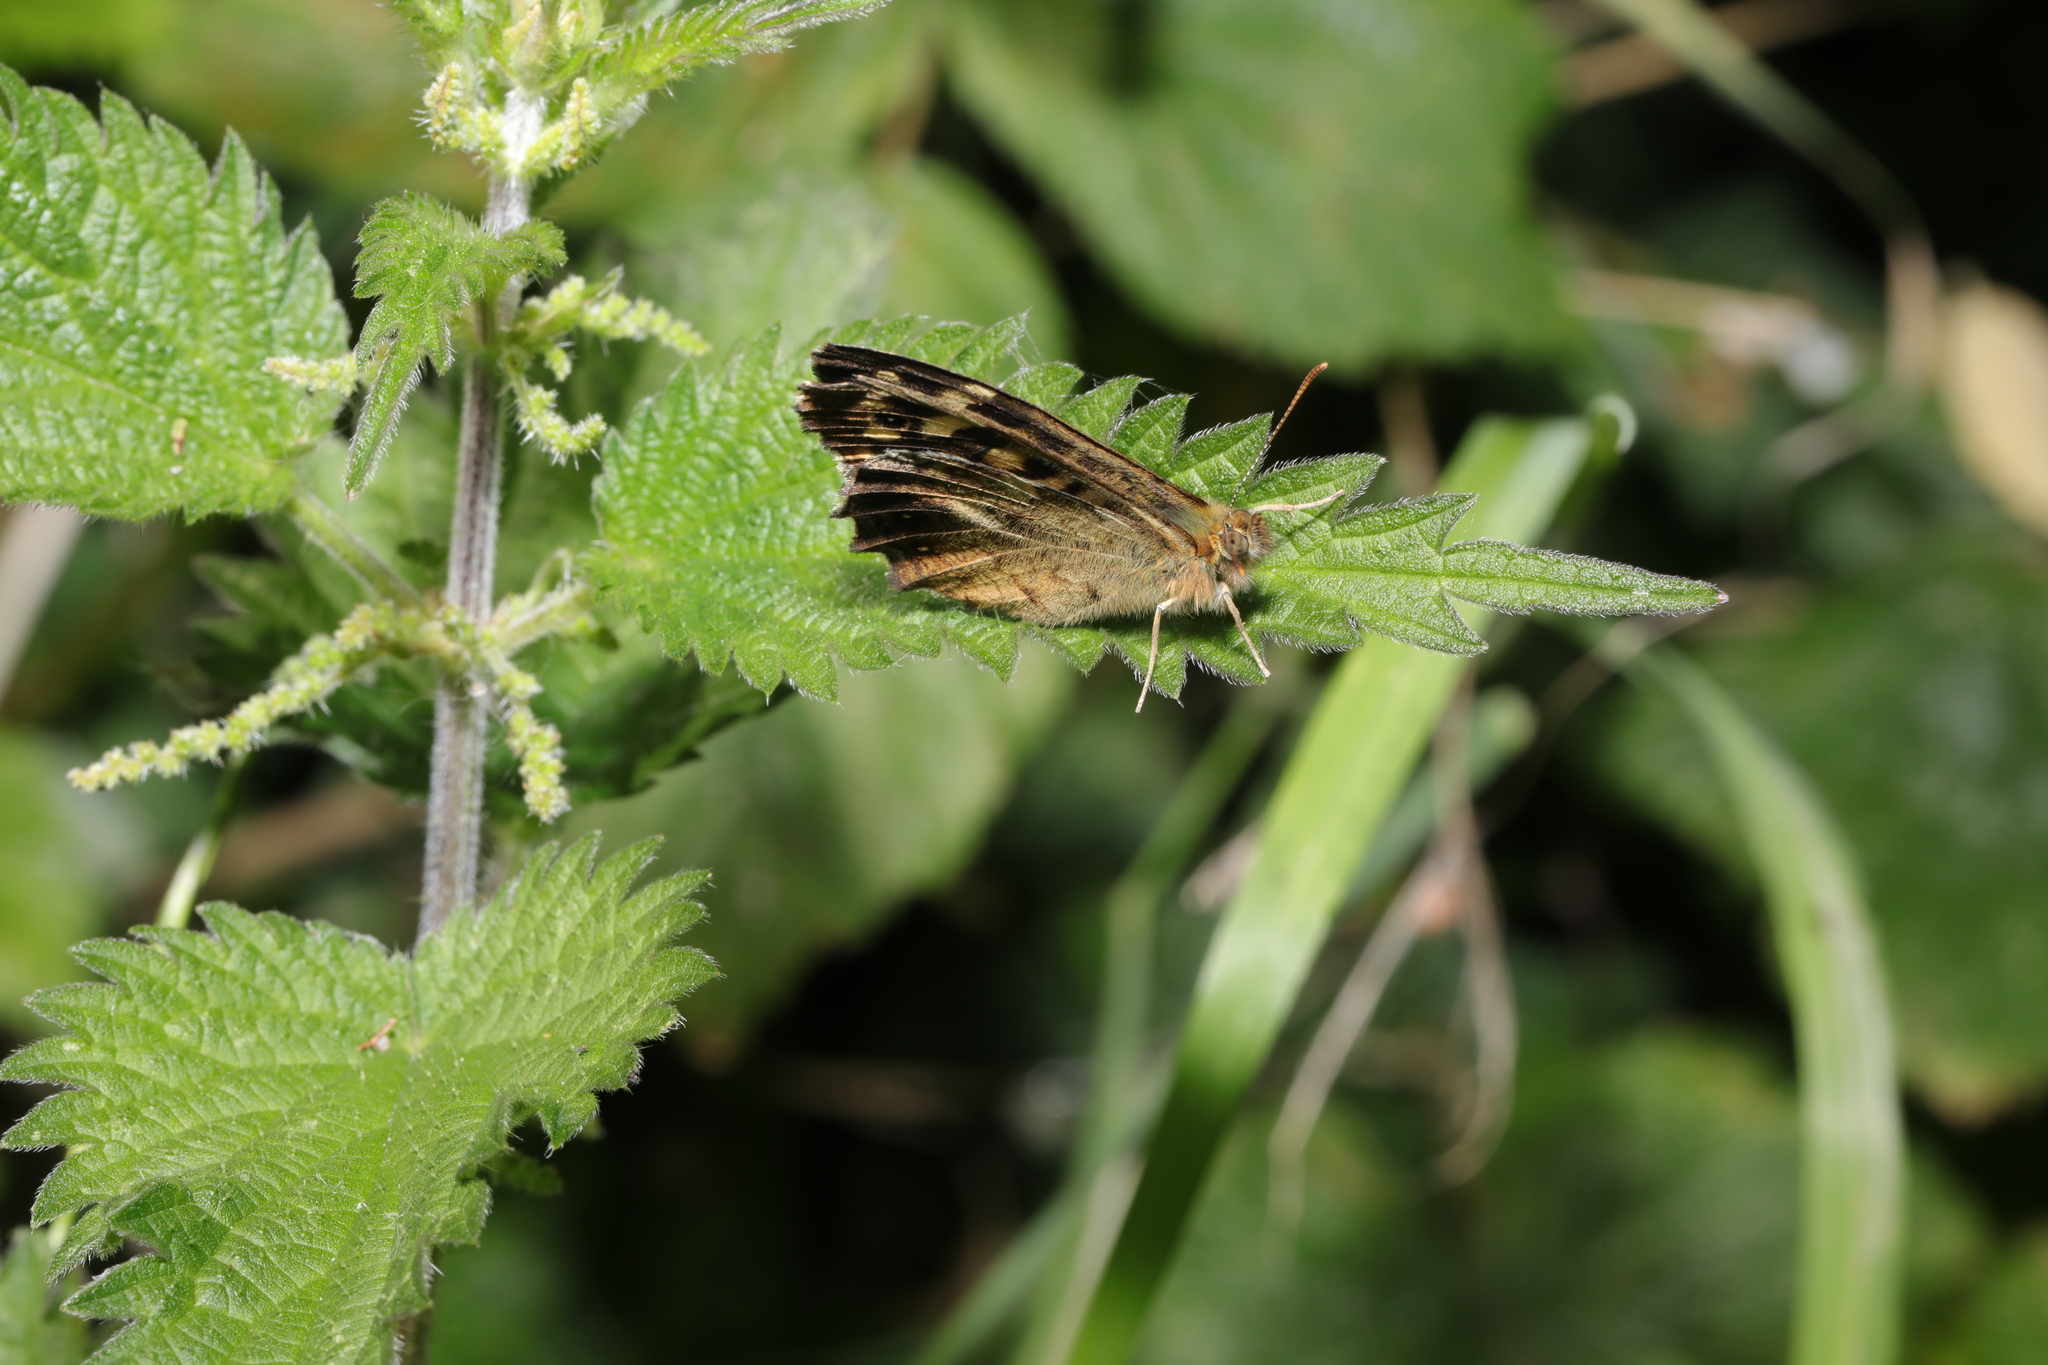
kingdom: Animalia
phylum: Arthropoda
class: Insecta
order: Lepidoptera
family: Nymphalidae
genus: Pararge
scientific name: Pararge aegeria
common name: Speckled wood
